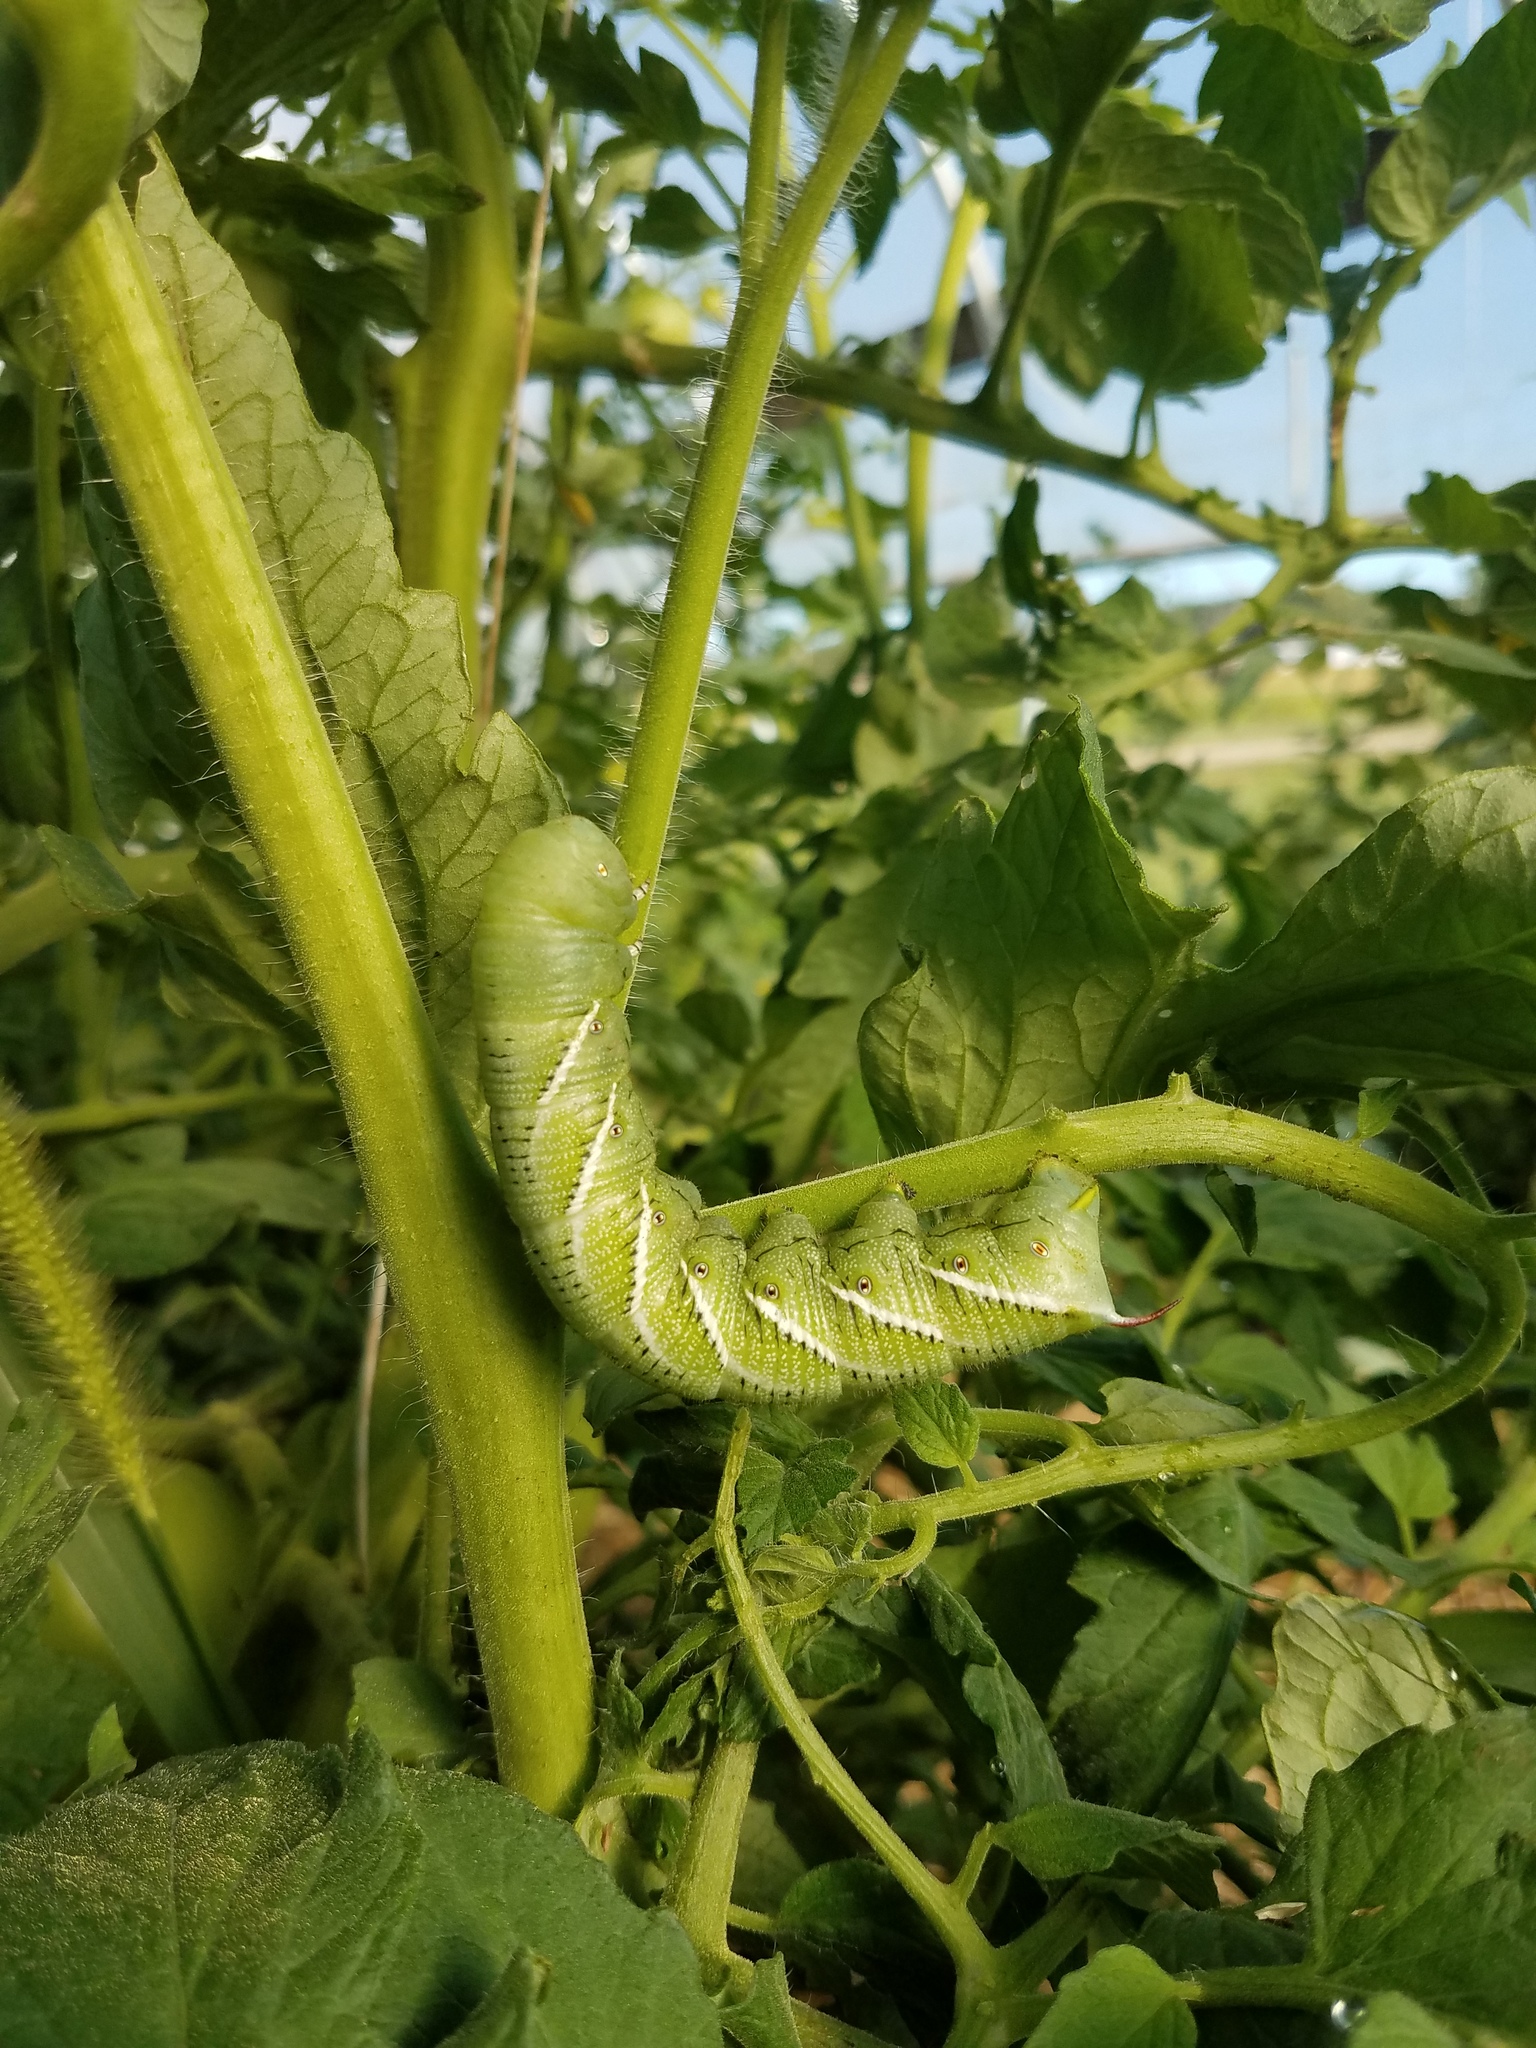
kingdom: Animalia
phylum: Arthropoda
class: Insecta
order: Lepidoptera
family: Sphingidae
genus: Manduca
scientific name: Manduca sexta
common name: Carolina sphinx
